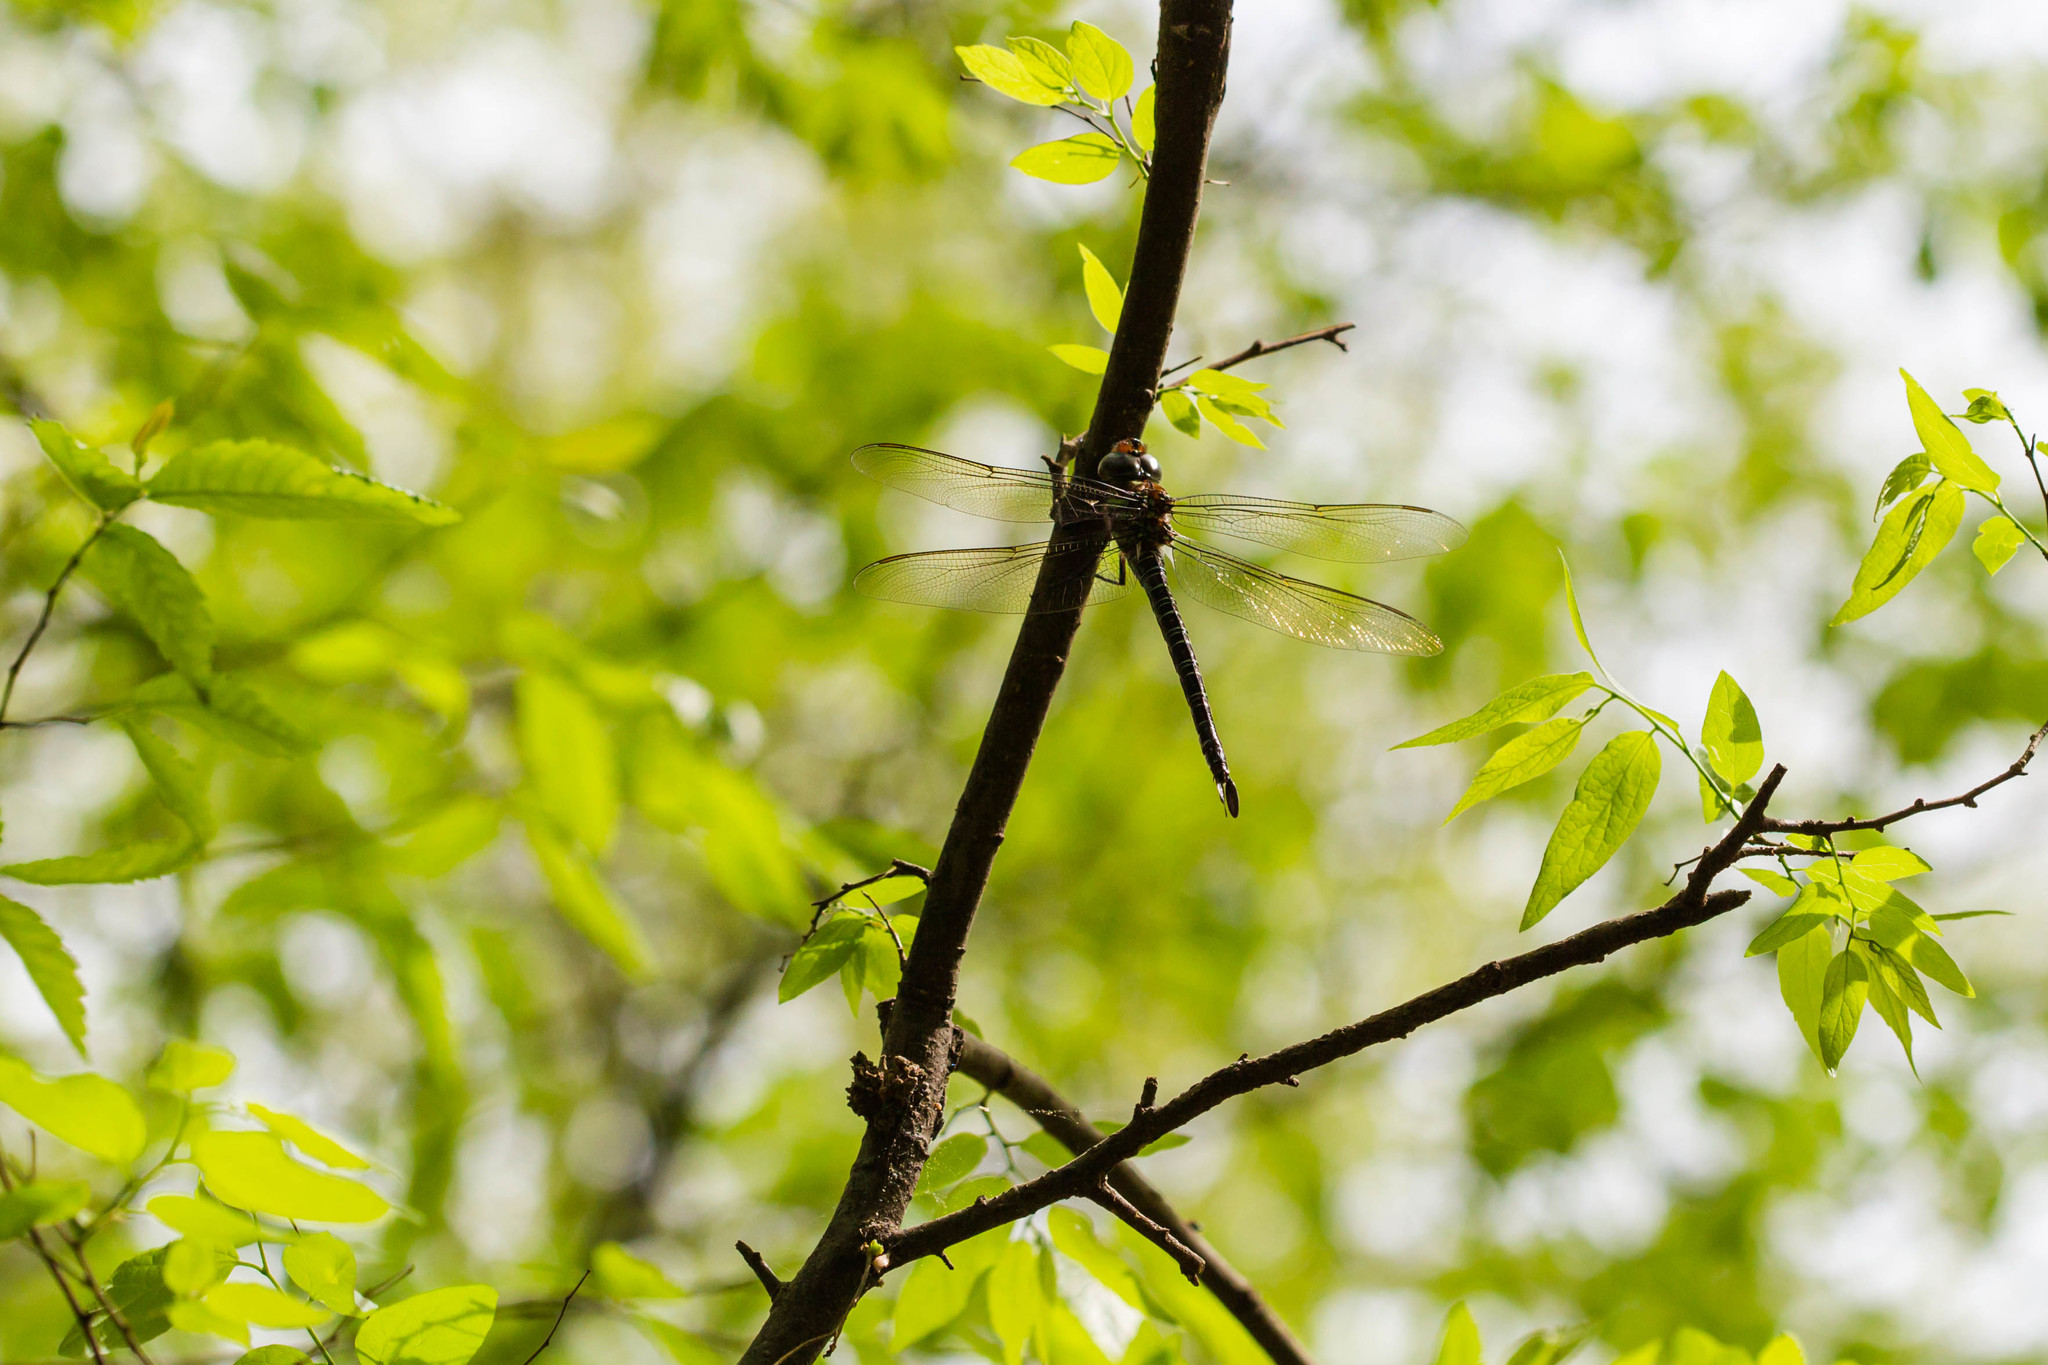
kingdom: Animalia
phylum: Arthropoda
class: Insecta
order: Odonata
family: Aeshnidae
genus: Epiaeschna
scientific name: Epiaeschna heros
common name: Swamp darner
